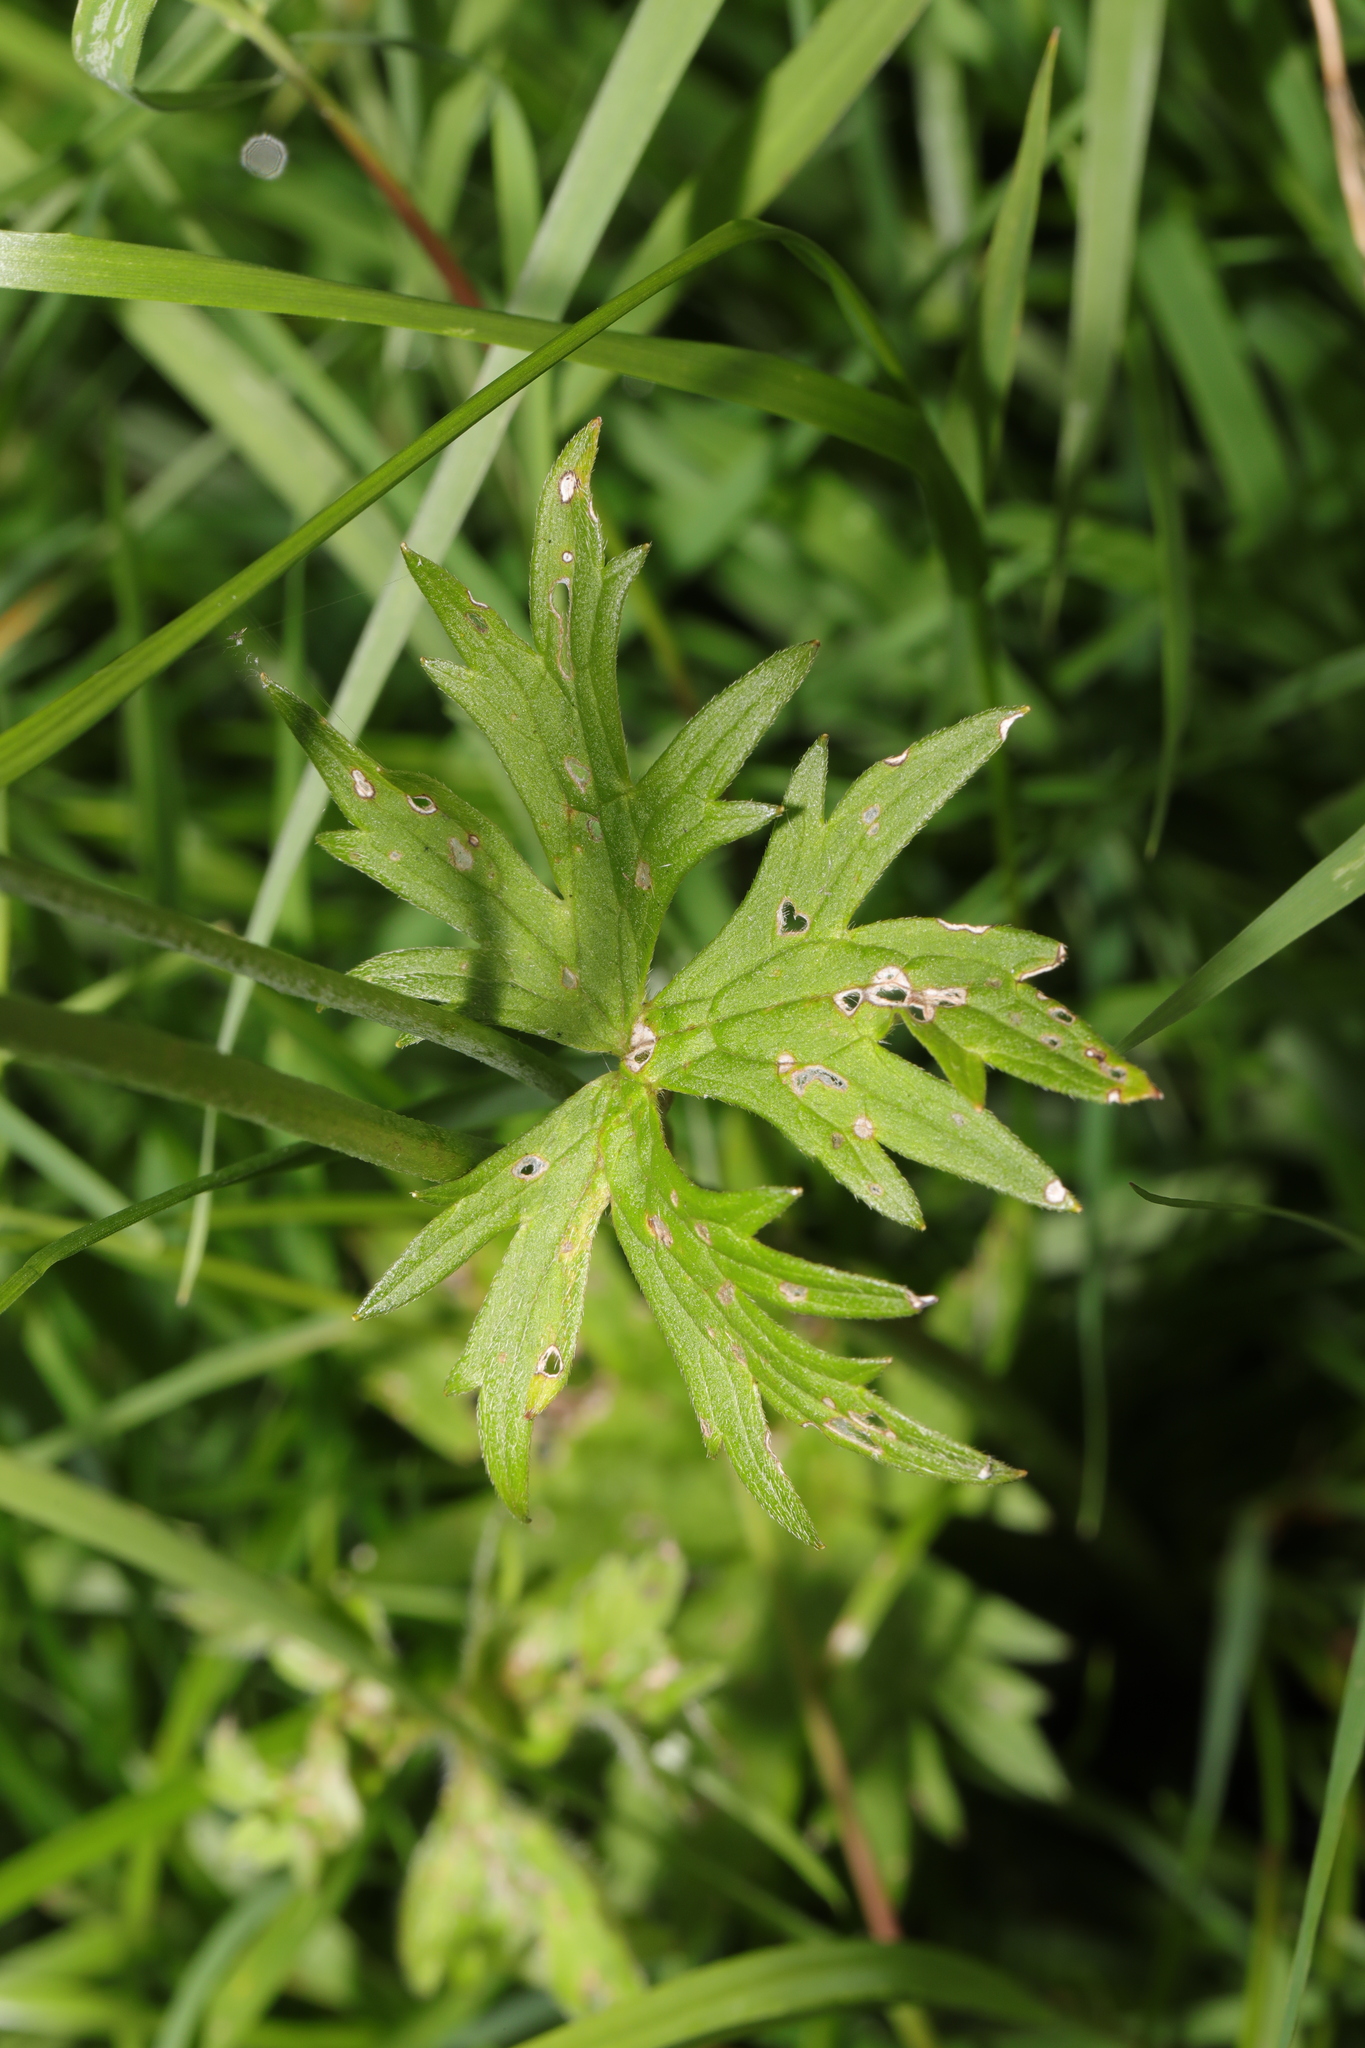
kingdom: Plantae
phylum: Tracheophyta
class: Magnoliopsida
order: Ranunculales
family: Ranunculaceae
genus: Ranunculus
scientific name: Ranunculus acris
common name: Meadow buttercup
